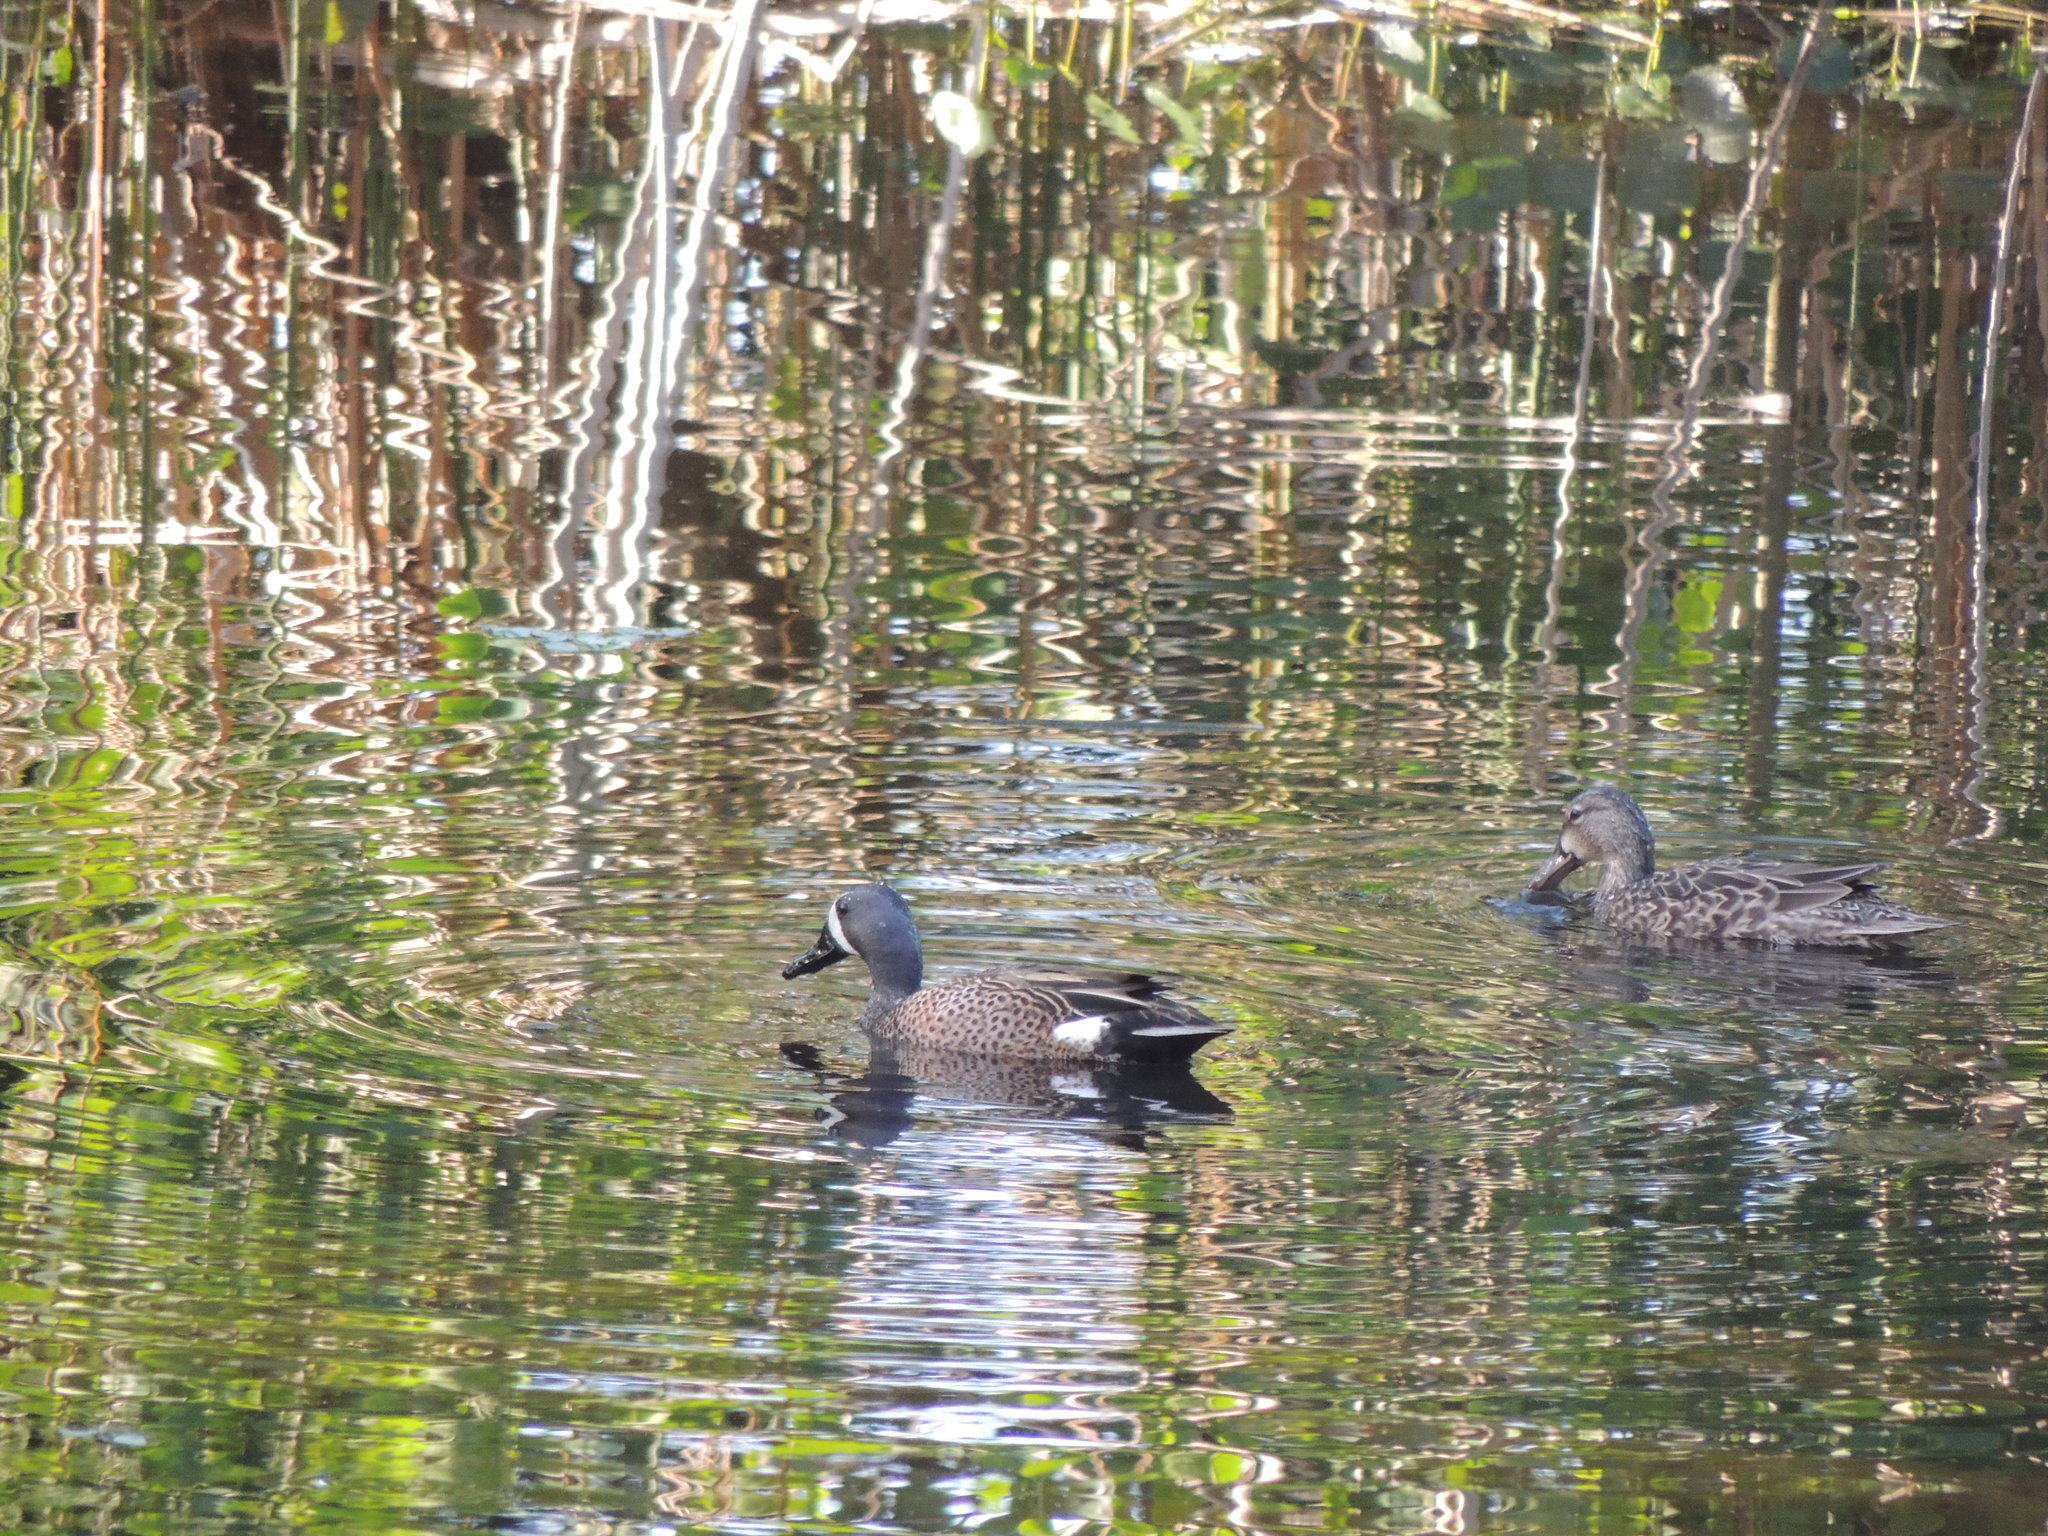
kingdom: Animalia
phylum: Chordata
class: Aves
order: Anseriformes
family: Anatidae
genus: Spatula
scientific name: Spatula discors
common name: Blue-winged teal
